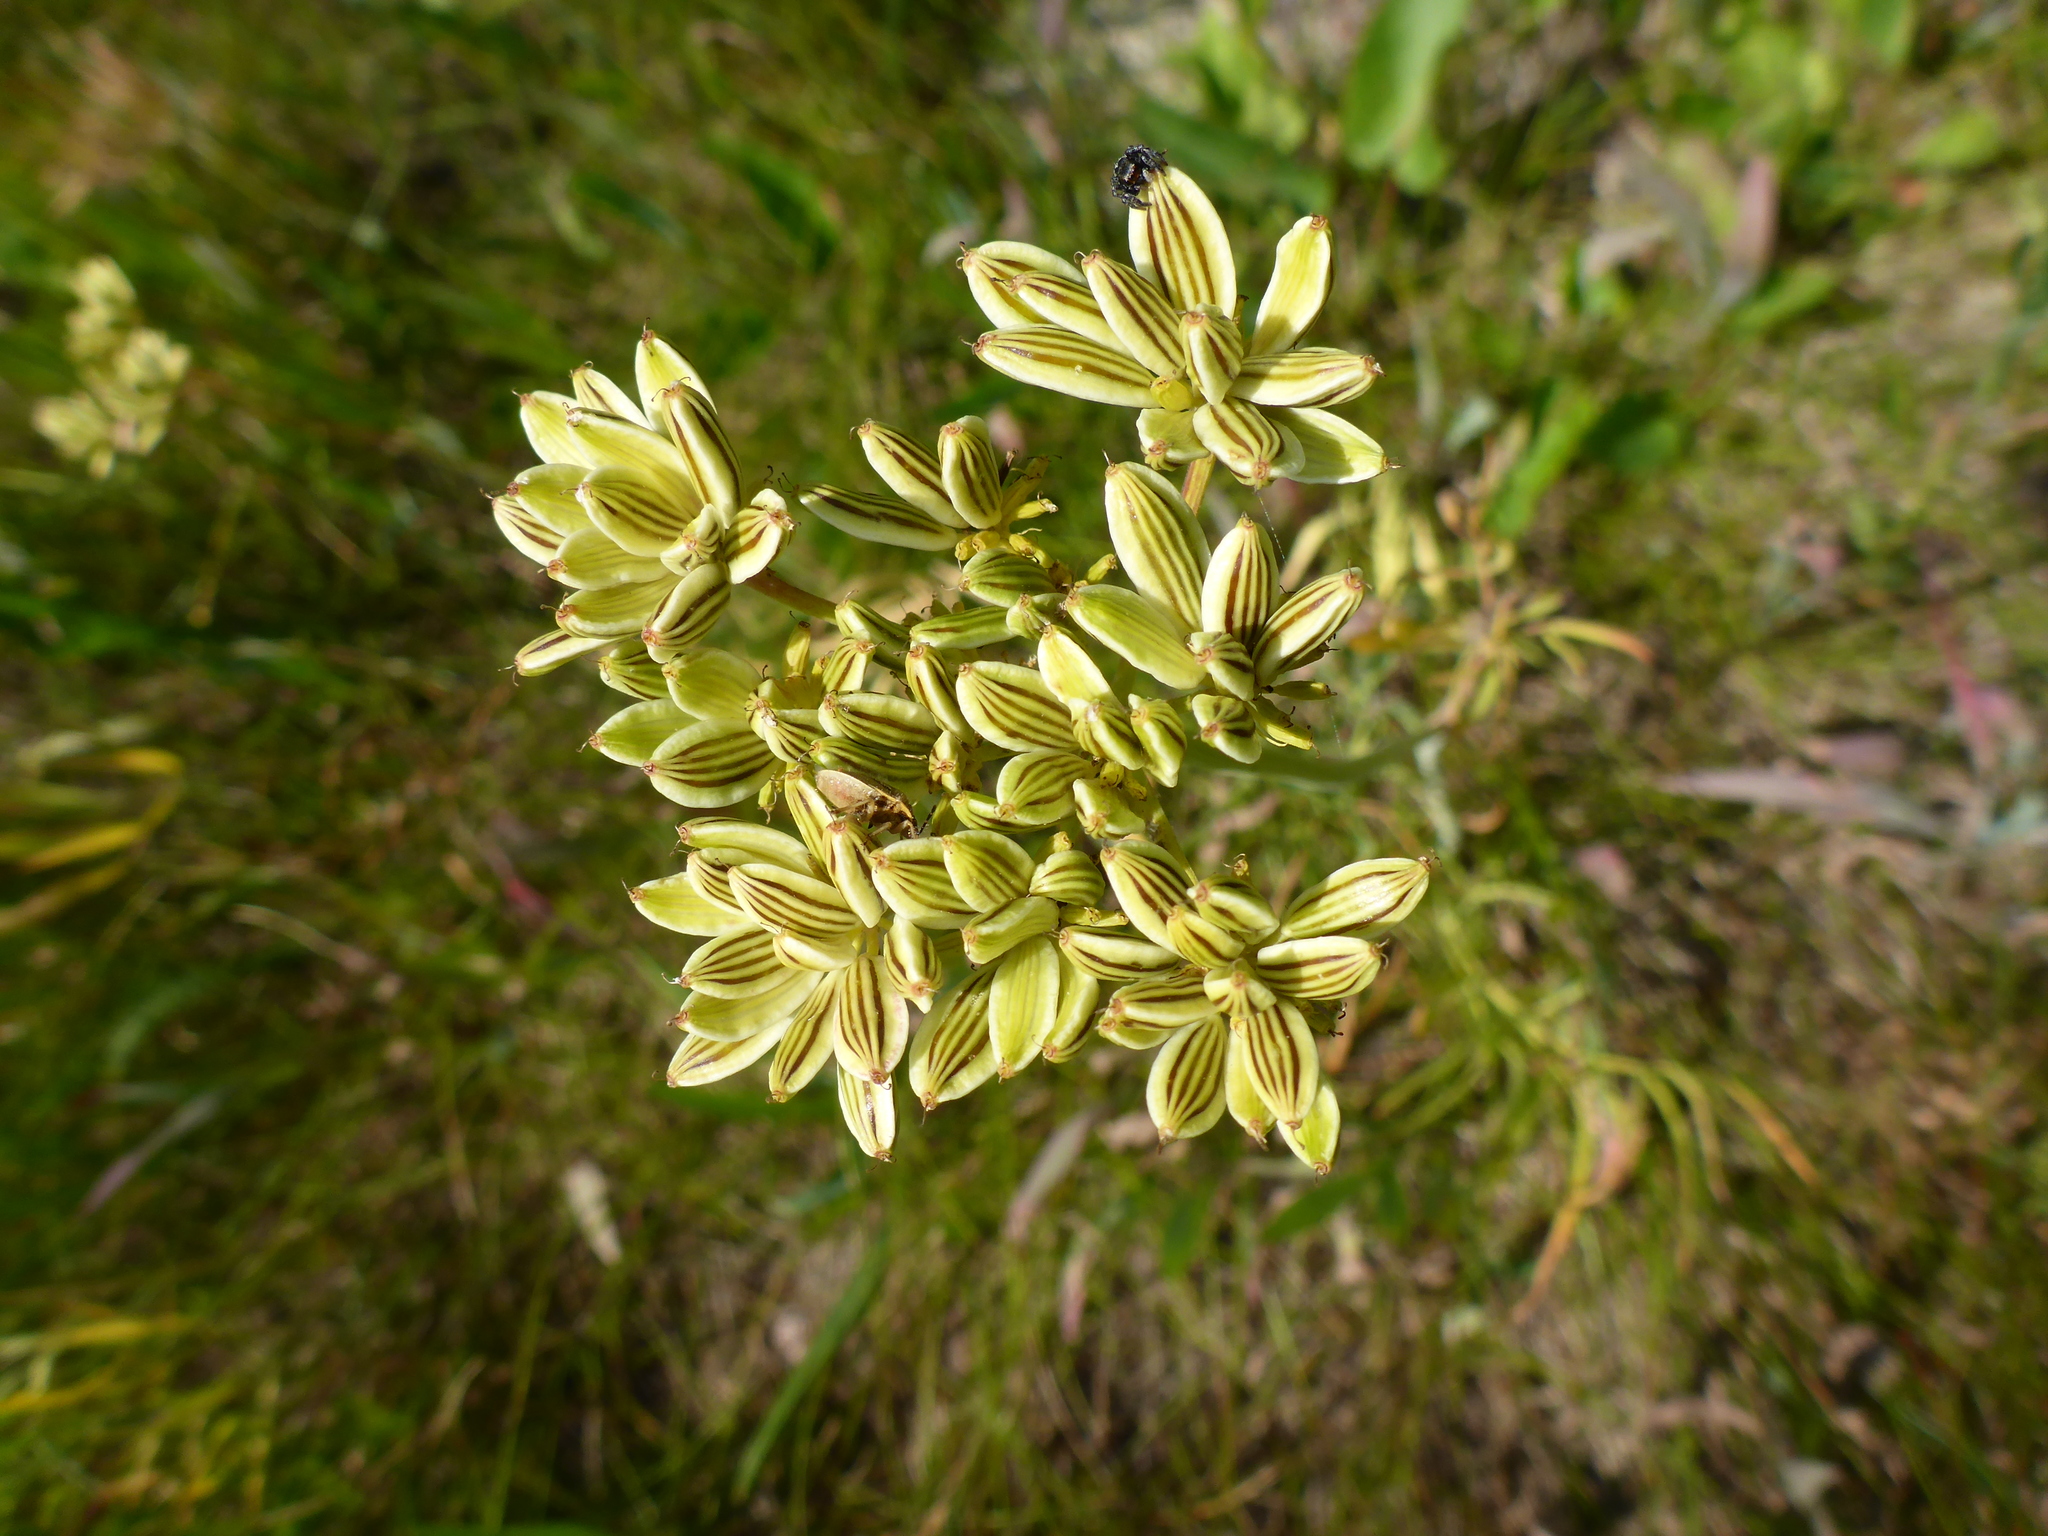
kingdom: Plantae
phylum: Tracheophyta
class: Magnoliopsida
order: Apiales
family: Apiaceae
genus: Lomatium
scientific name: Lomatium triternatum
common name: Ternate lomatium
